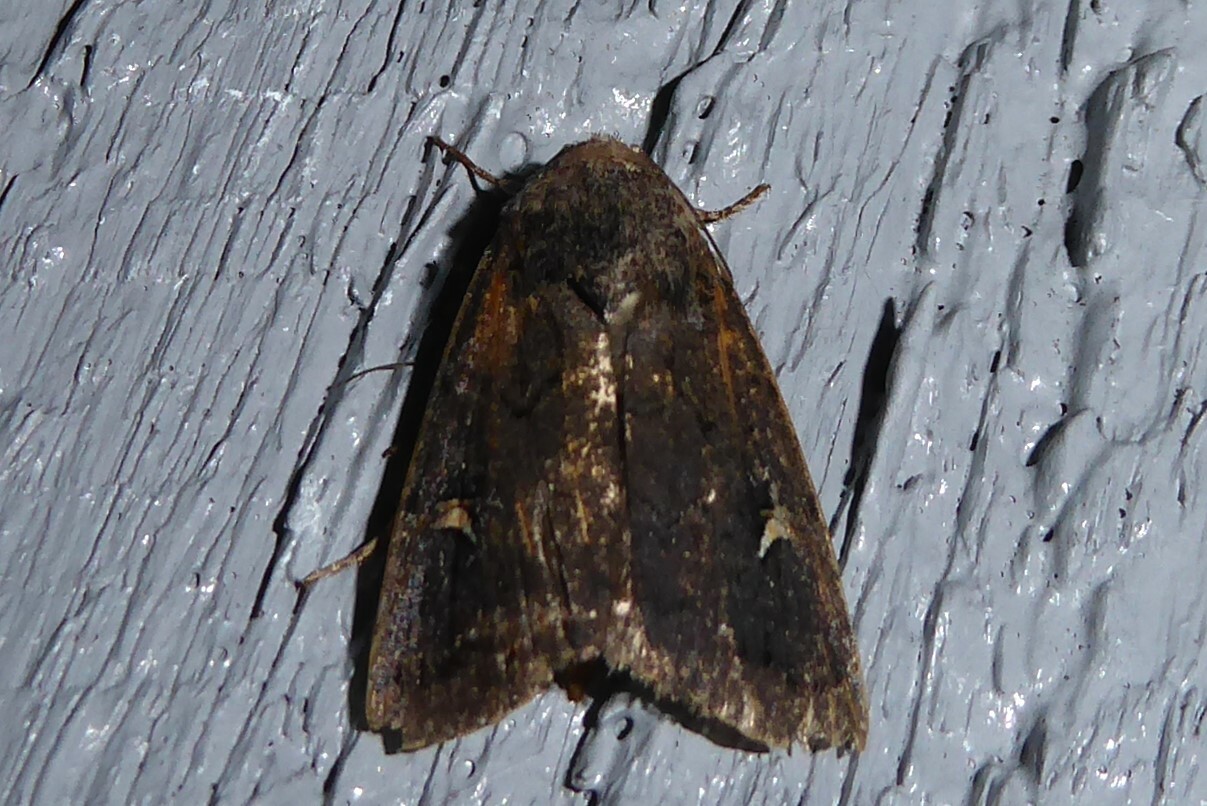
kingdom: Animalia
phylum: Arthropoda
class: Insecta
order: Lepidoptera
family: Noctuidae
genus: Proteuxoa
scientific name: Proteuxoa comma
